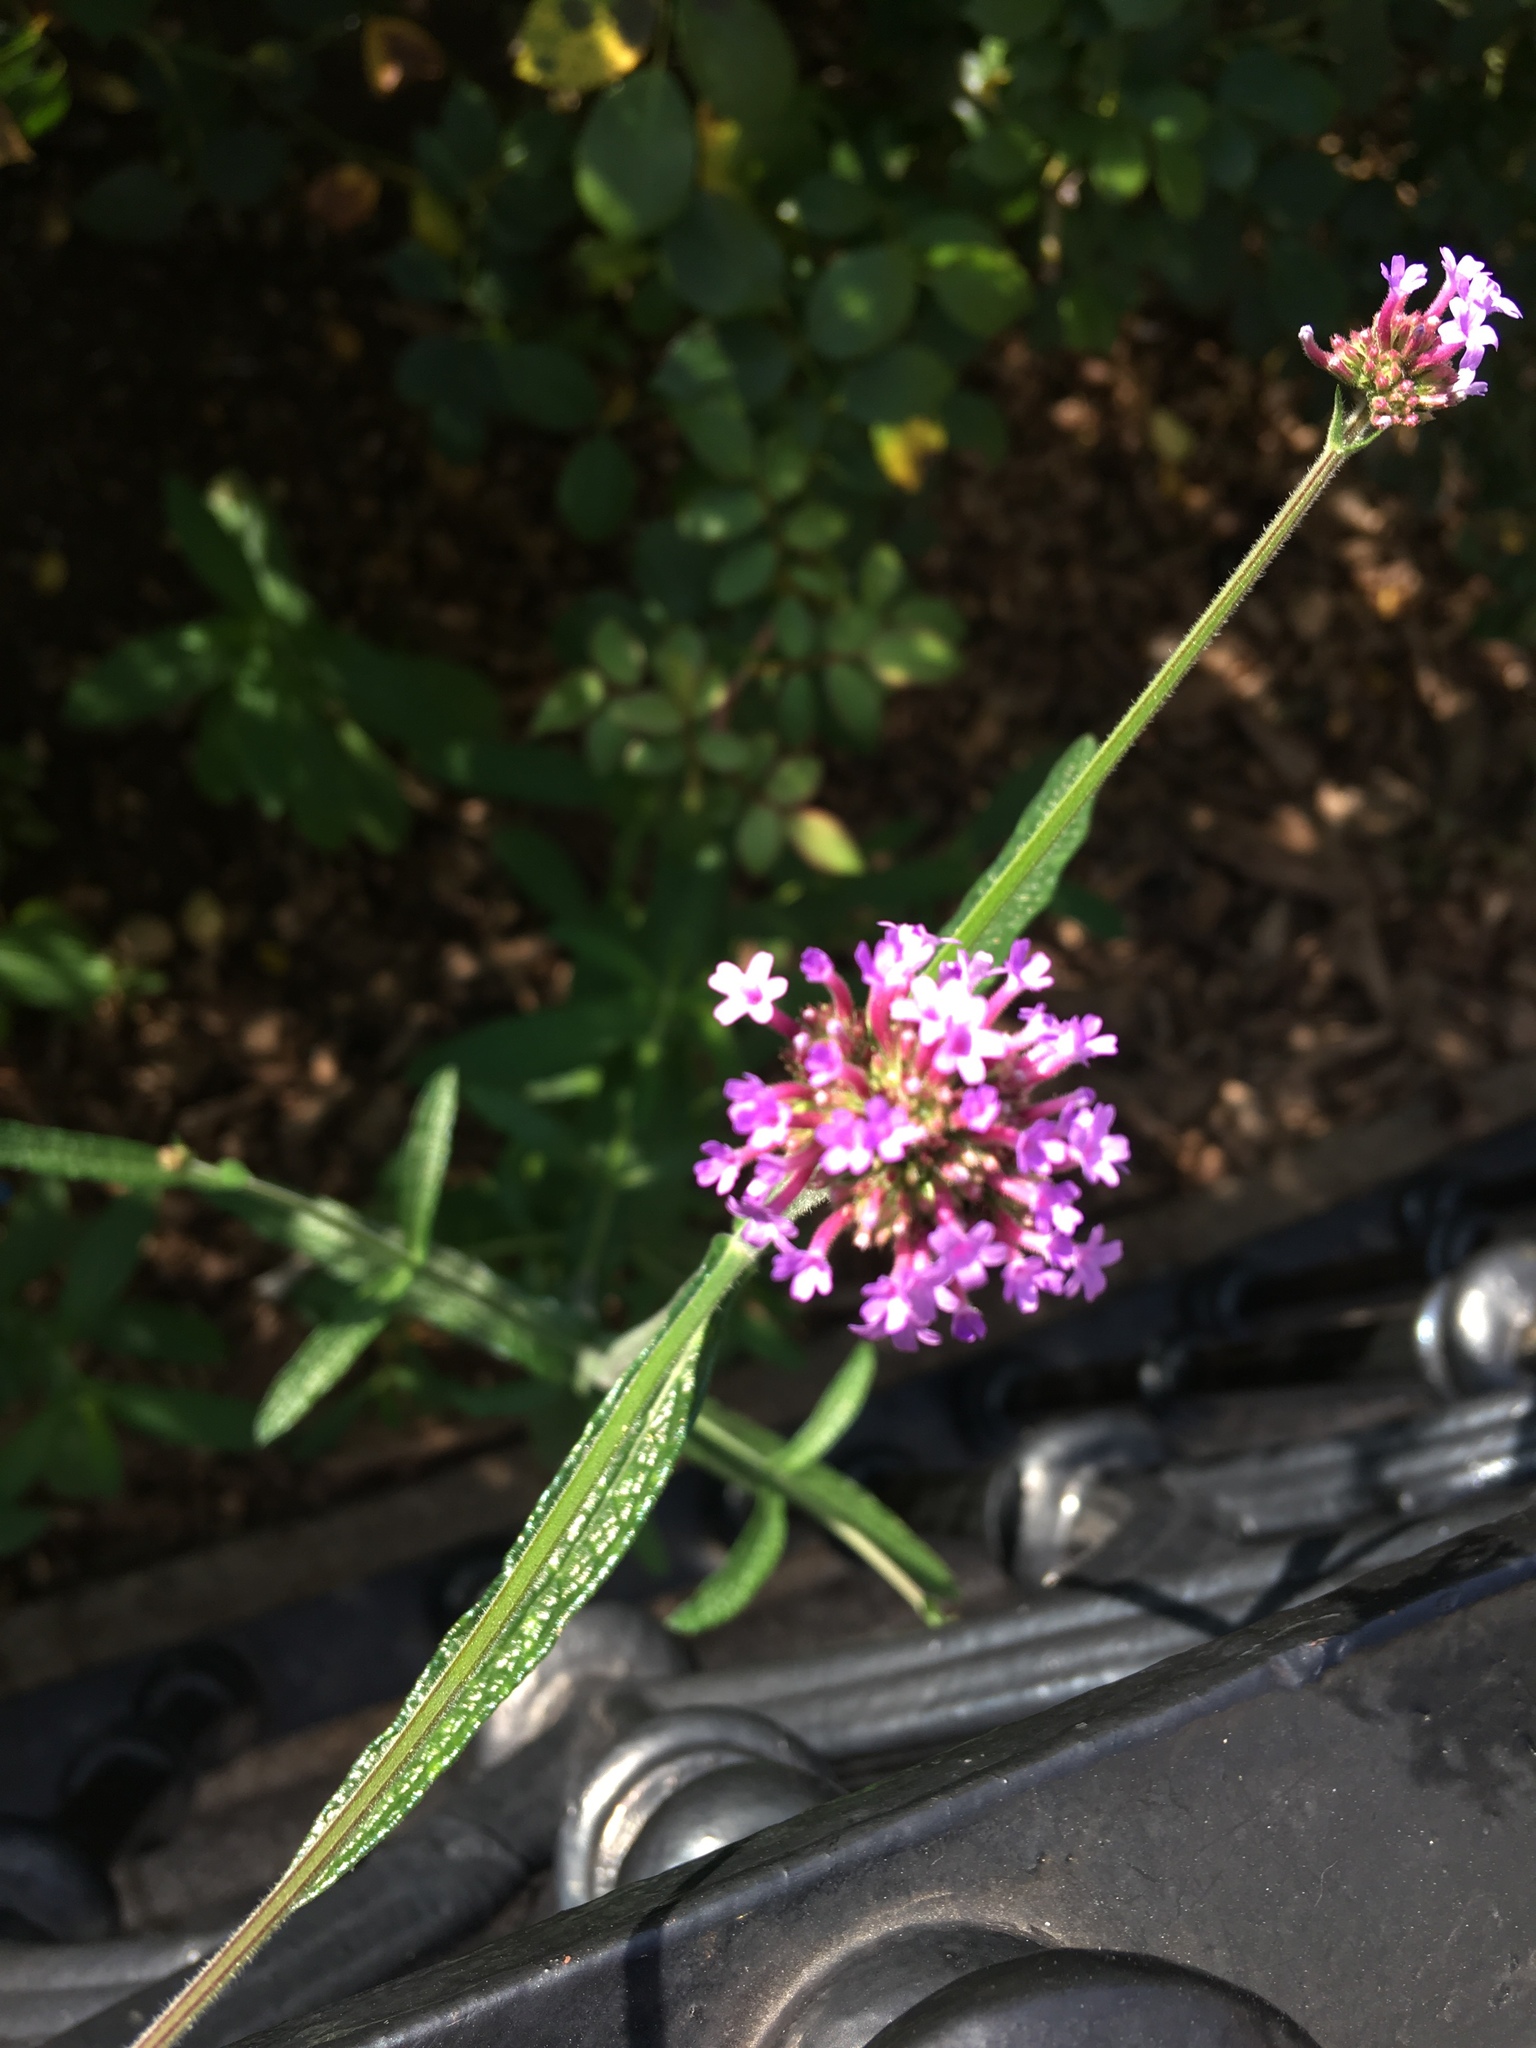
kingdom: Plantae
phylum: Tracheophyta
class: Magnoliopsida
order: Lamiales
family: Verbenaceae
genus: Verbena
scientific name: Verbena bonariensis
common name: Purpletop vervain
